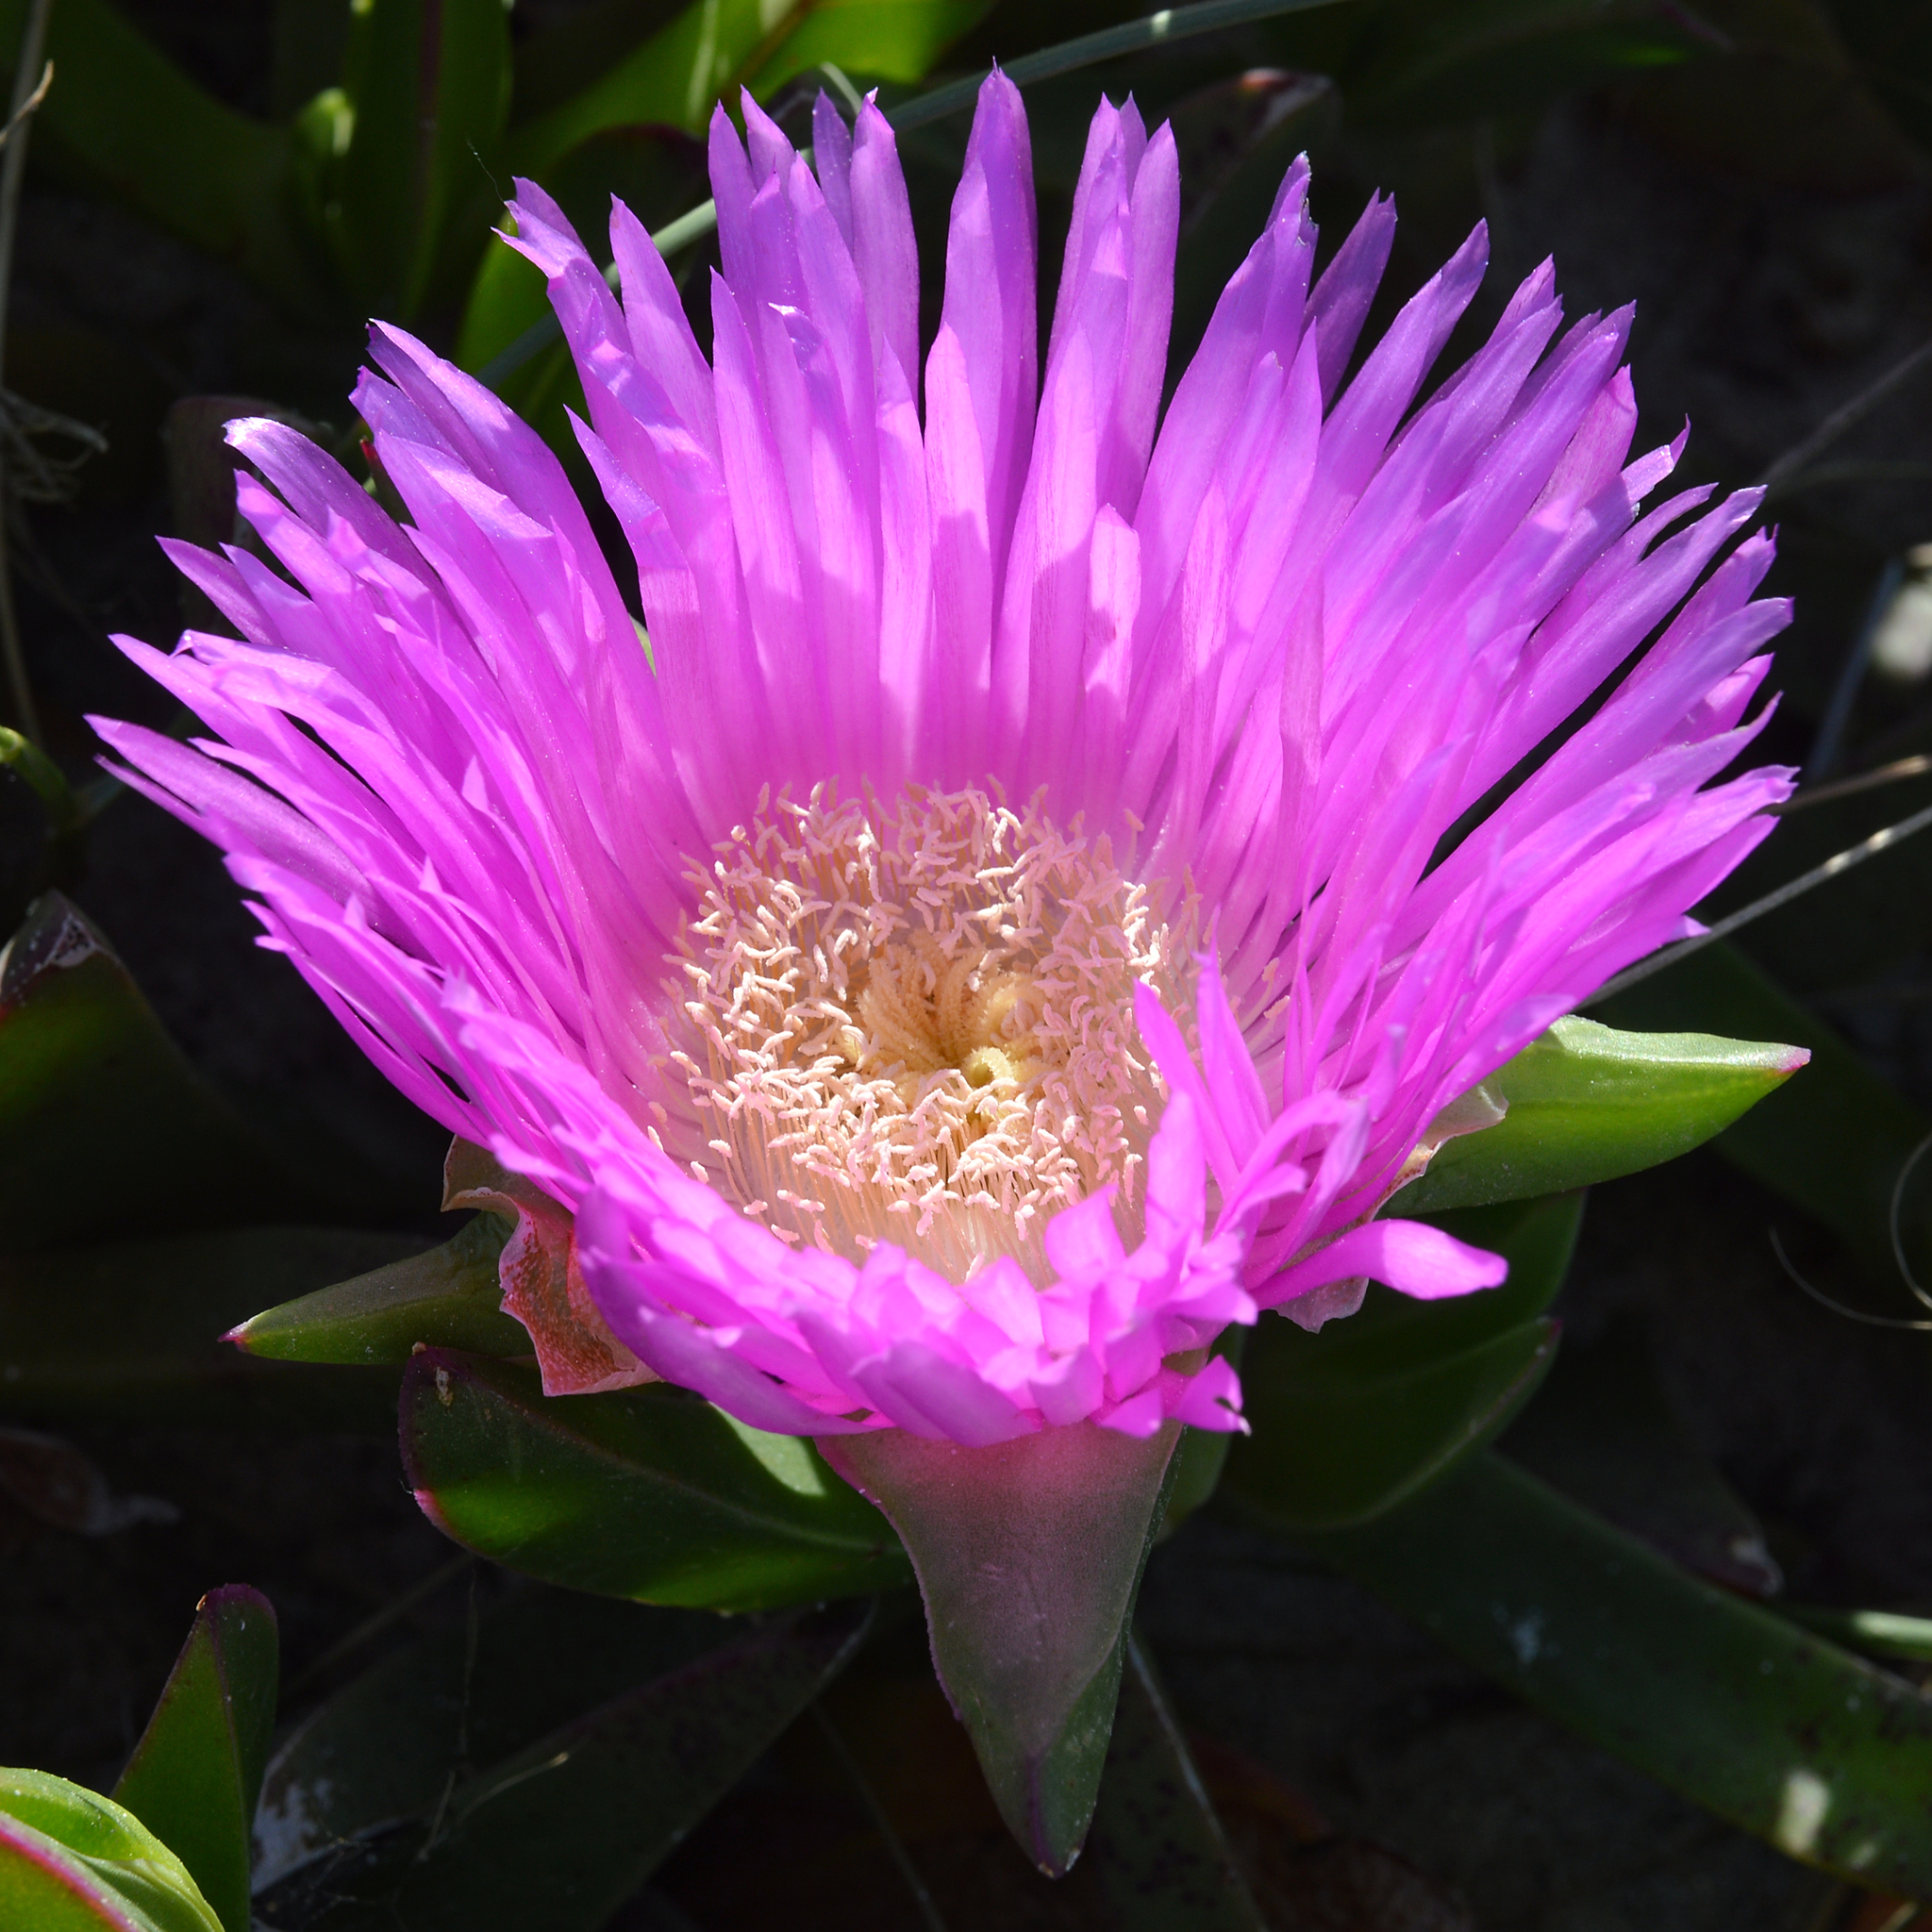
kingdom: Plantae
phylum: Tracheophyta
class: Magnoliopsida
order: Caryophyllales
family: Aizoaceae
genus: Carpobrotus
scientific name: Carpobrotus acinaciformis
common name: Sally-my-handsome
